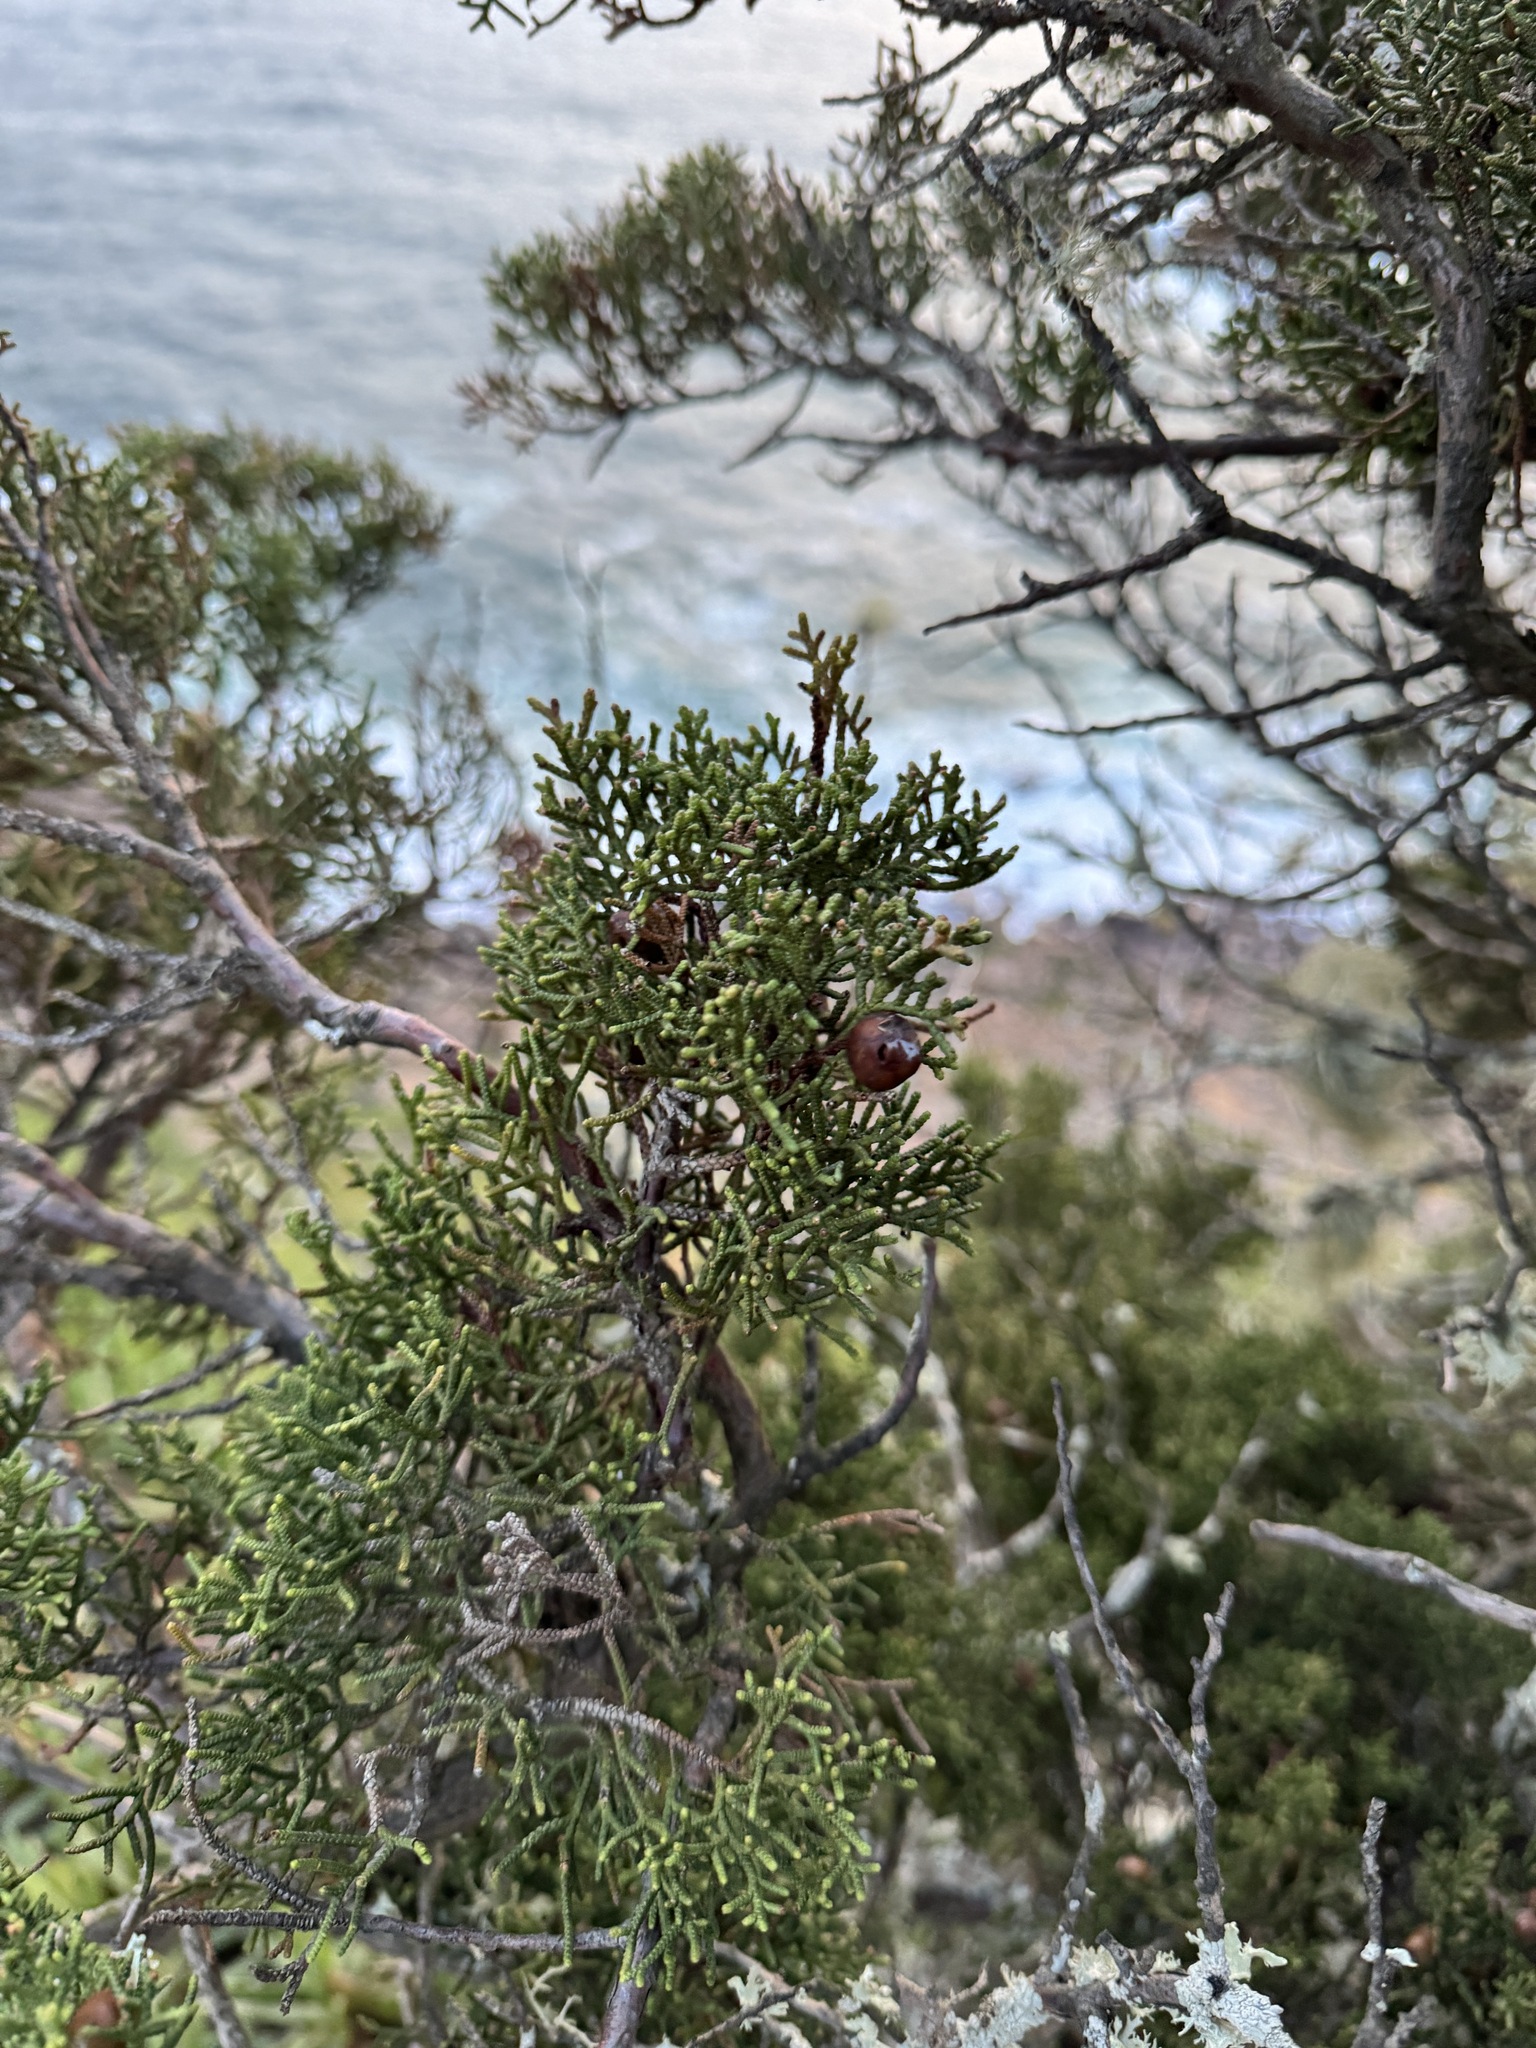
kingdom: Plantae
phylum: Tracheophyta
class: Pinopsida
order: Pinales
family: Cupressaceae
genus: Juniperus
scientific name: Juniperus phoenicea
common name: Phoenician juniper
